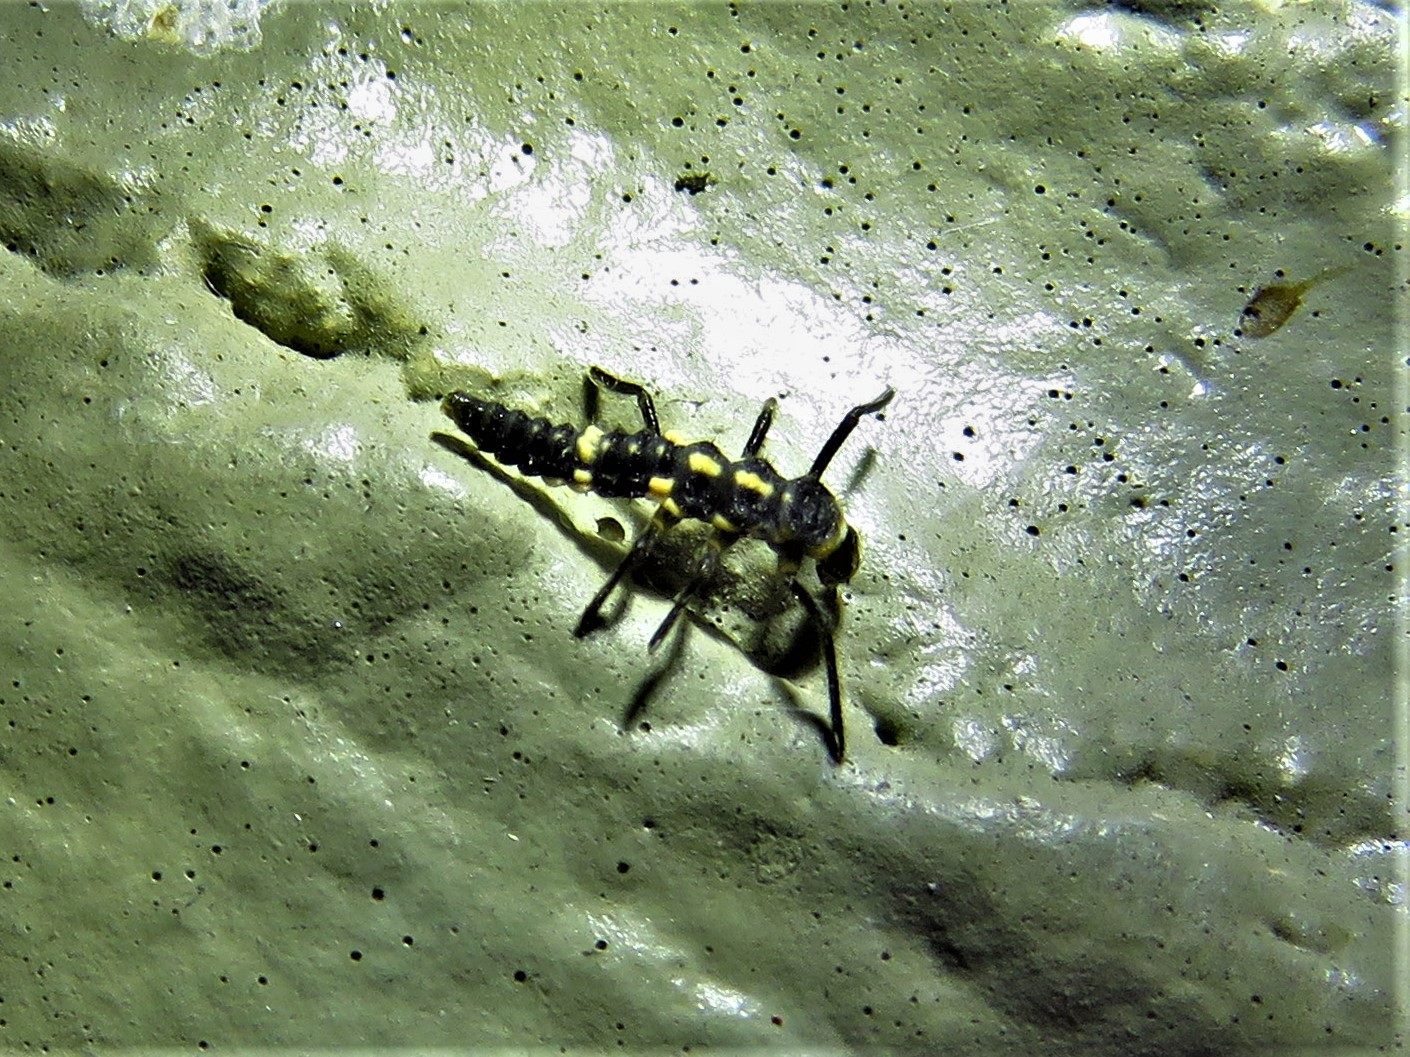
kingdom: Animalia
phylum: Arthropoda
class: Insecta
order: Coleoptera
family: Coccinellidae
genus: Olla
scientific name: Olla v-nigrum
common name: Ashy gray lady beetle
